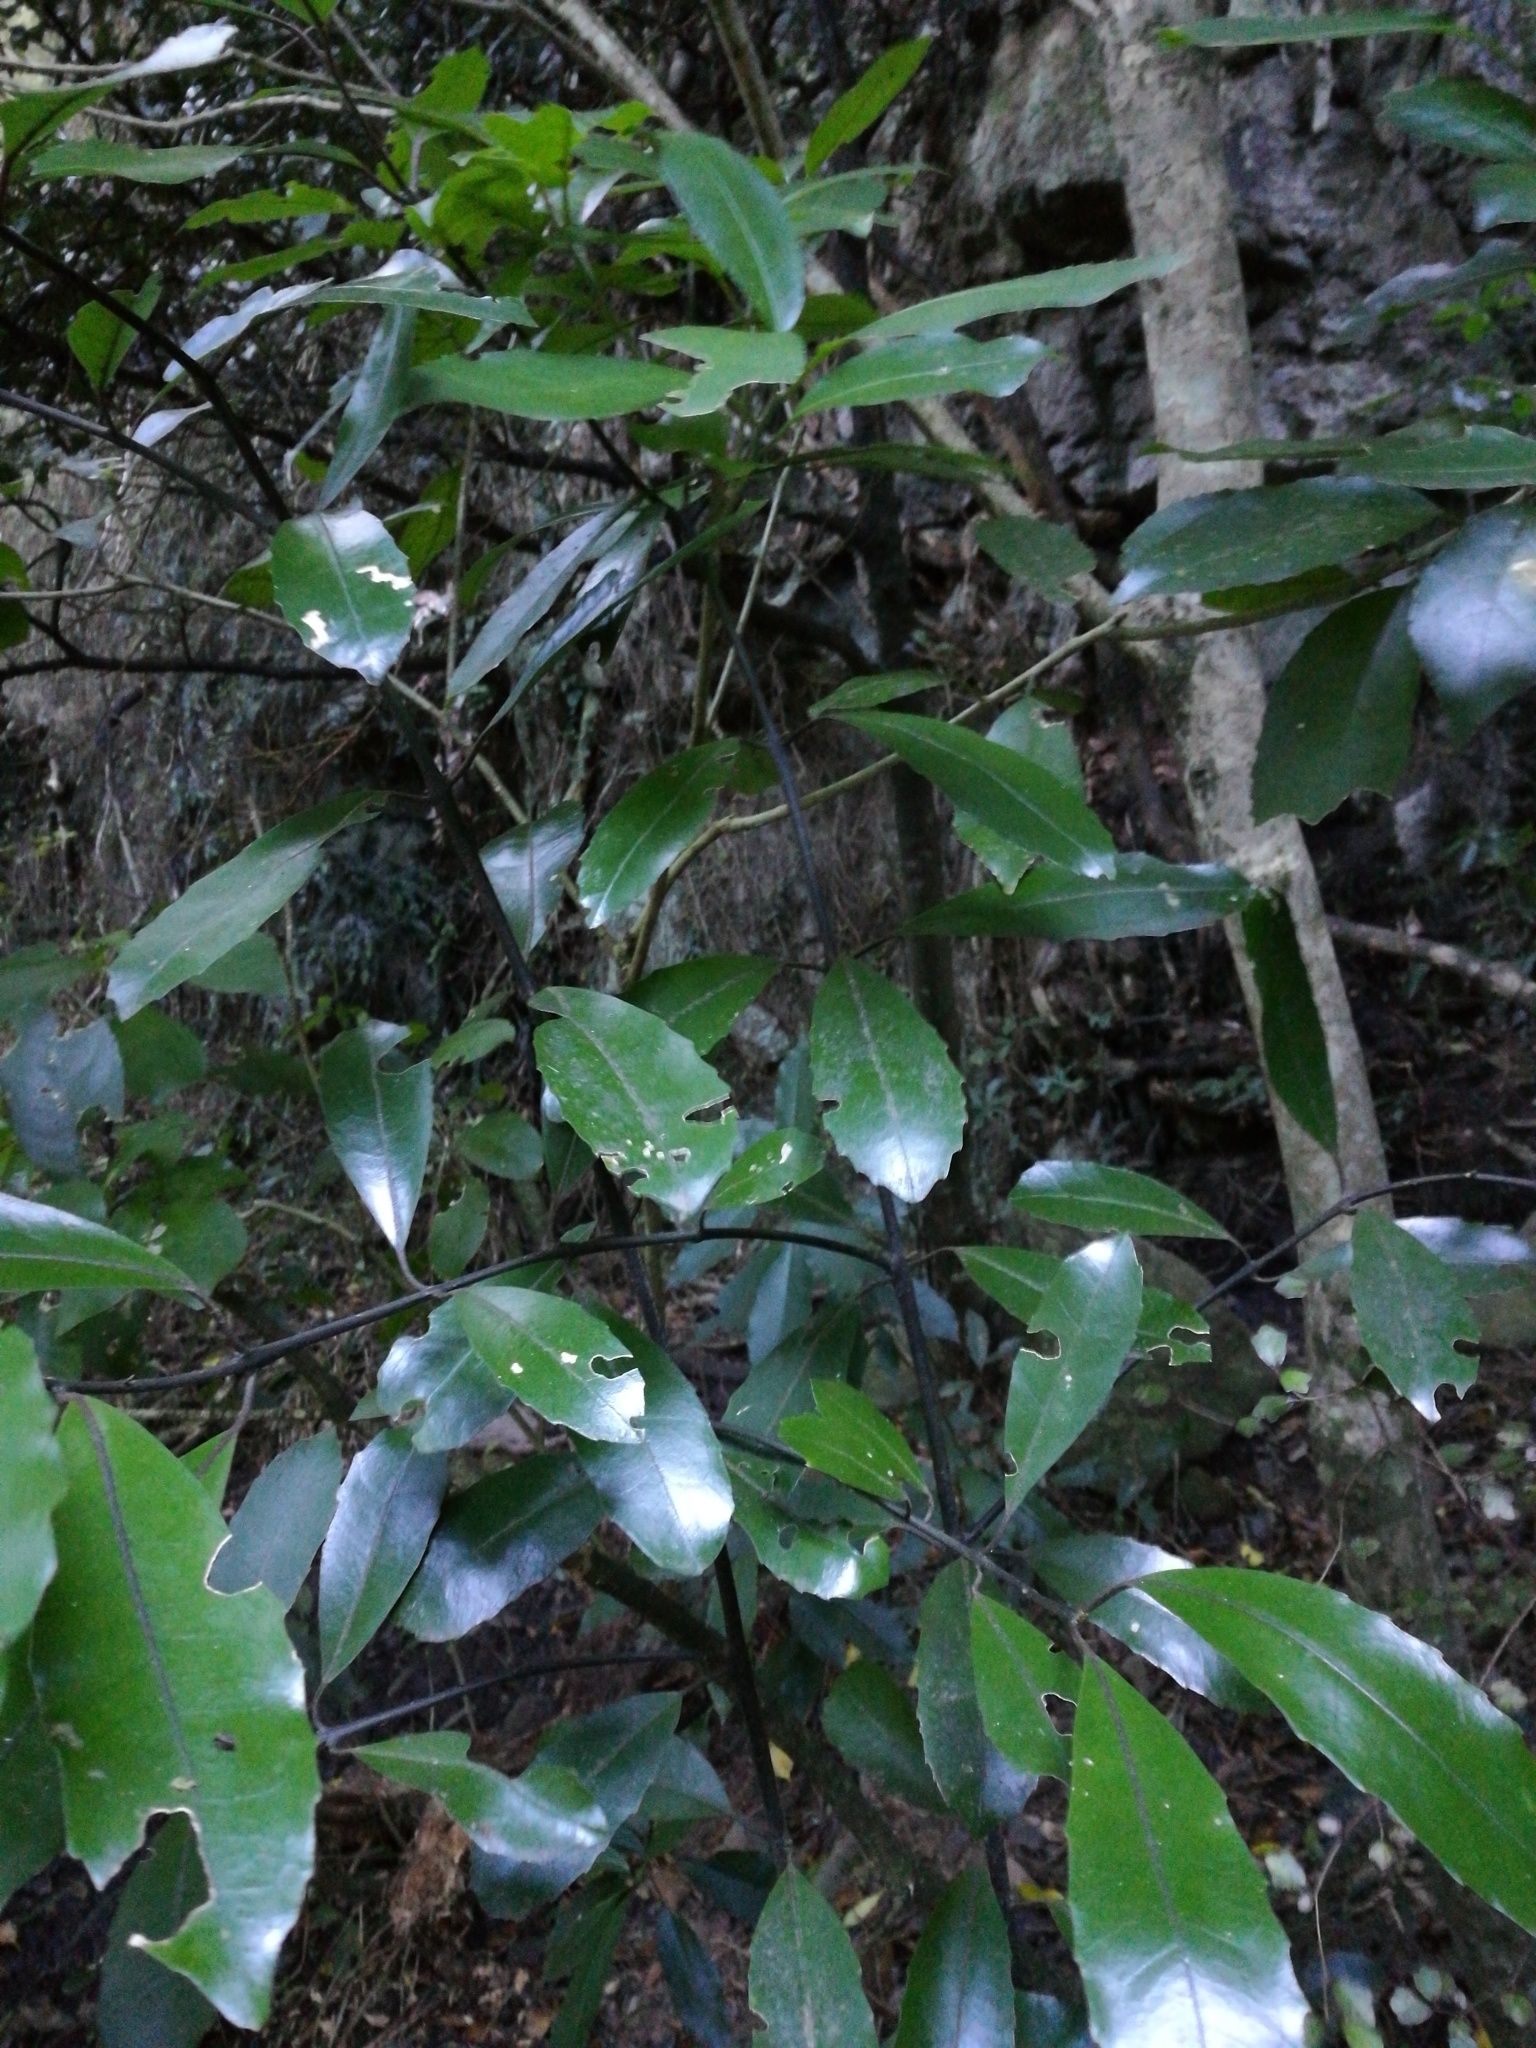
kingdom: Plantae
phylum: Tracheophyta
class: Magnoliopsida
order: Laurales
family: Monimiaceae
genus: Hedycarya
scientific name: Hedycarya arborea
